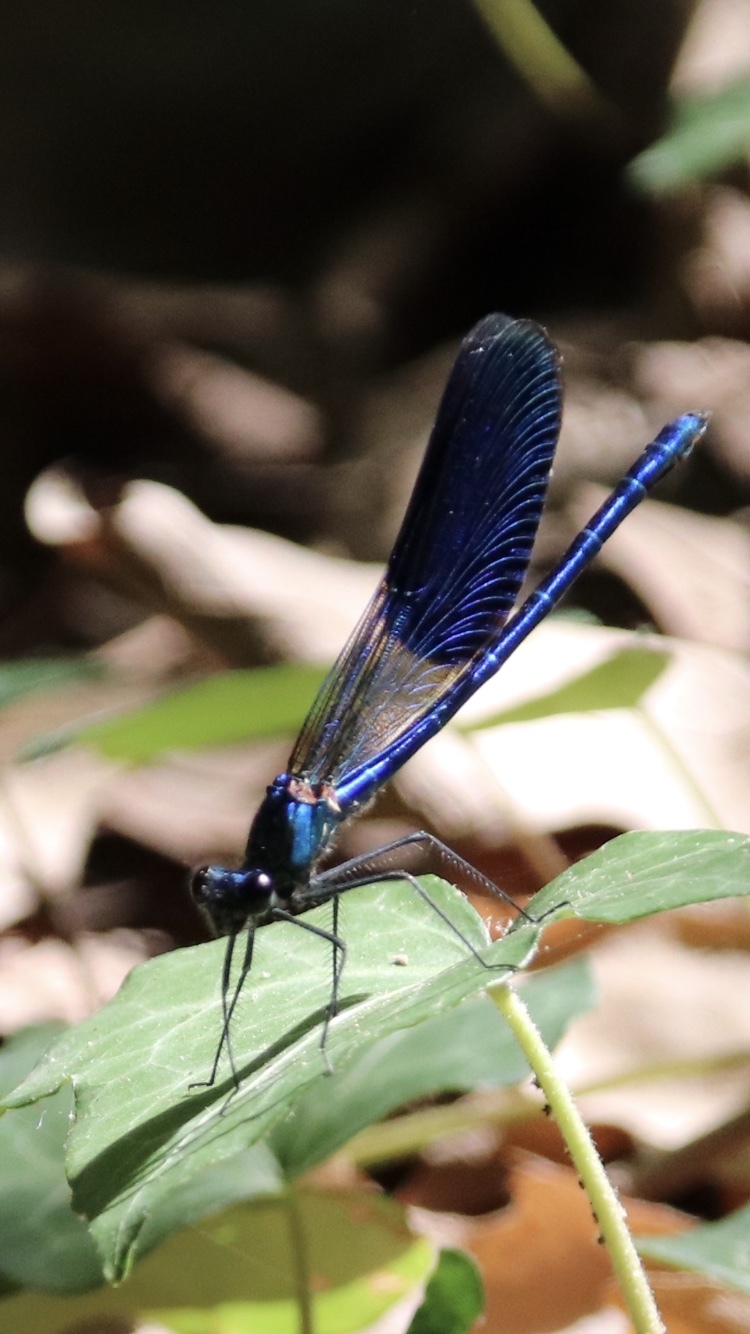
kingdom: Animalia
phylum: Arthropoda
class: Insecta
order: Odonata
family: Calopterygidae
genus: Calopteryx
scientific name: Calopteryx splendens
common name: Banded demoiselle
